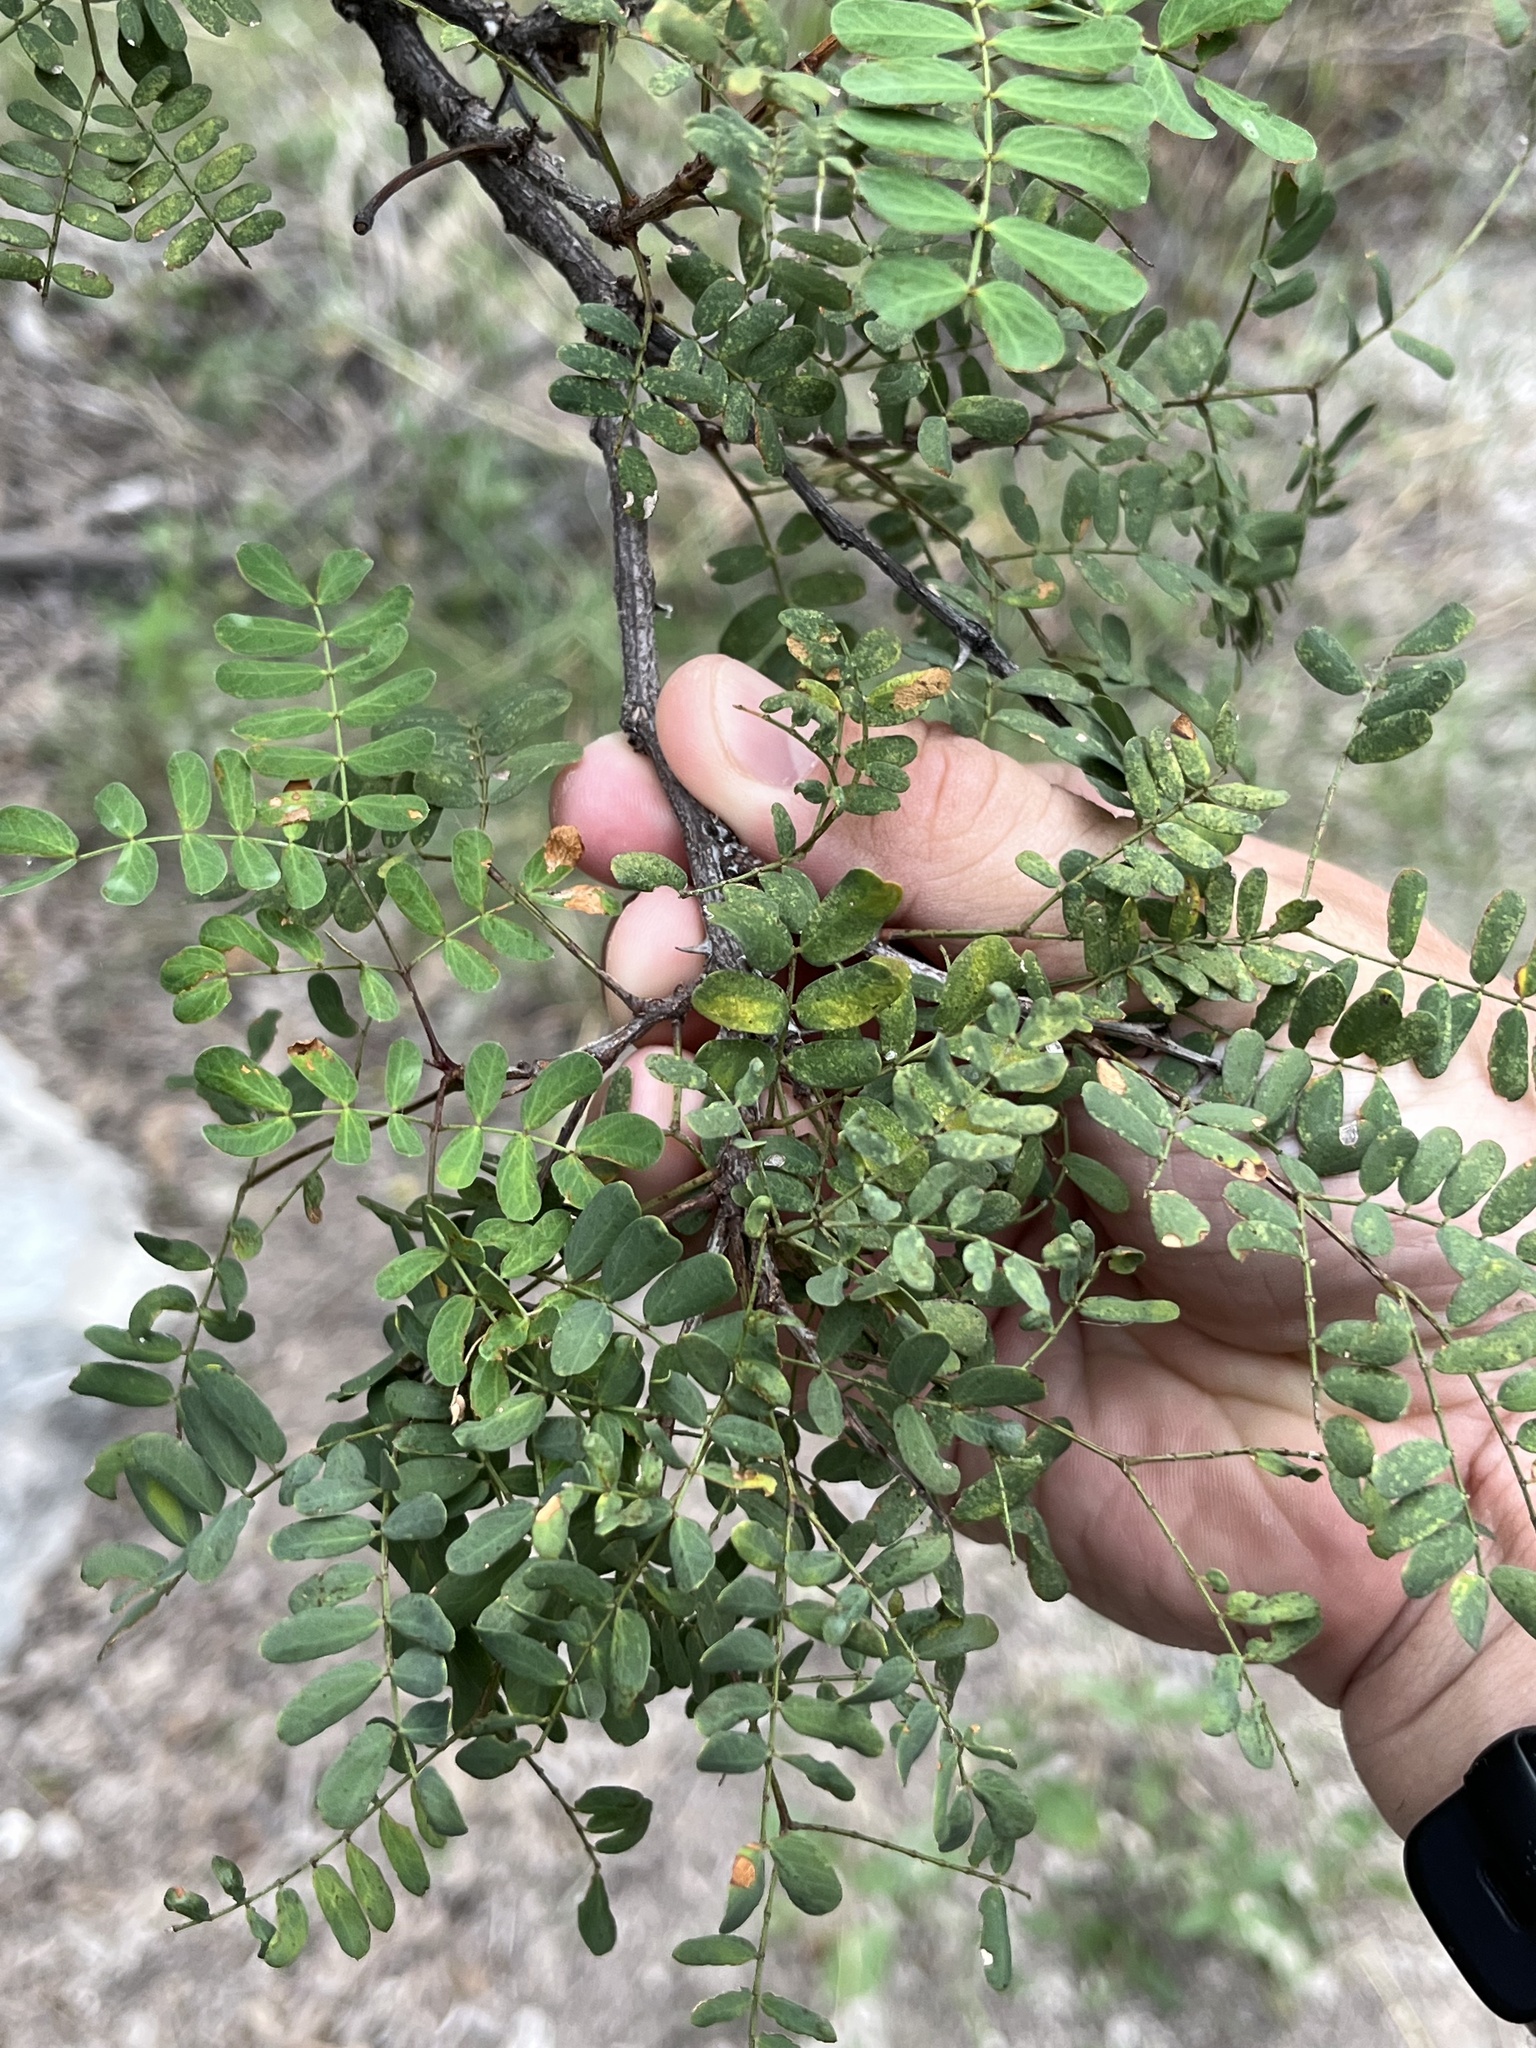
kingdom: Plantae
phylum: Tracheophyta
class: Magnoliopsida
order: Fabales
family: Fabaceae
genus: Senegalia
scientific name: Senegalia roemeriana
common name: Roemer's acacia
